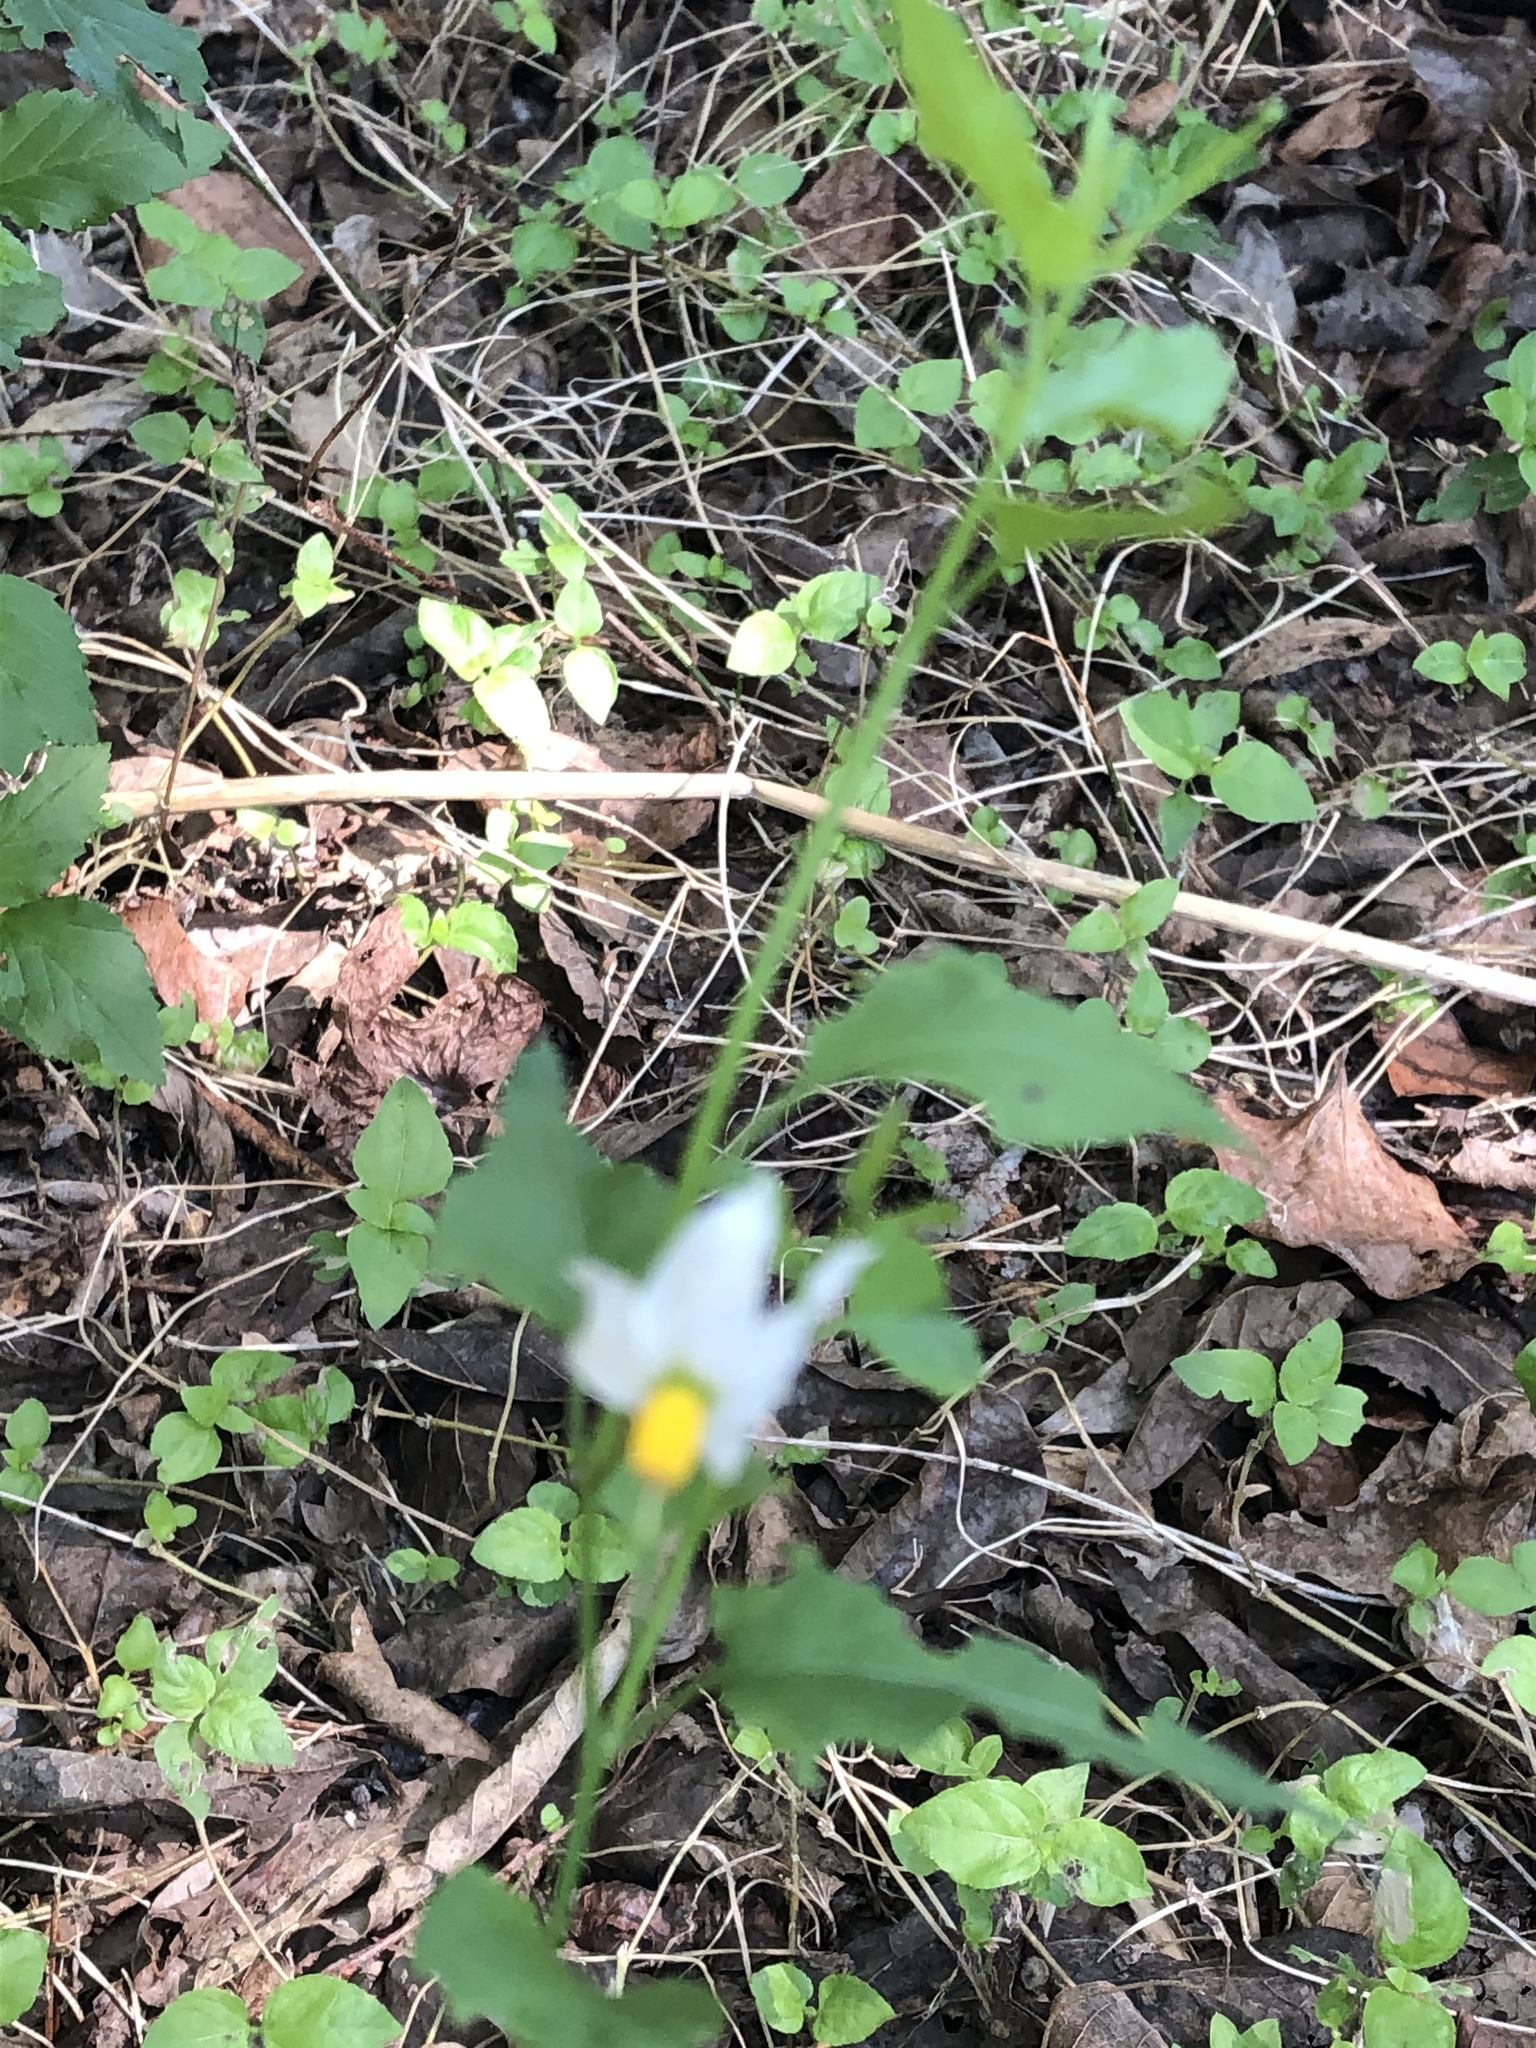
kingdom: Plantae
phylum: Tracheophyta
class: Magnoliopsida
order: Solanales
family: Solanaceae
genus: Solanum
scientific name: Solanum triquetrum
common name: Texas nightshade
